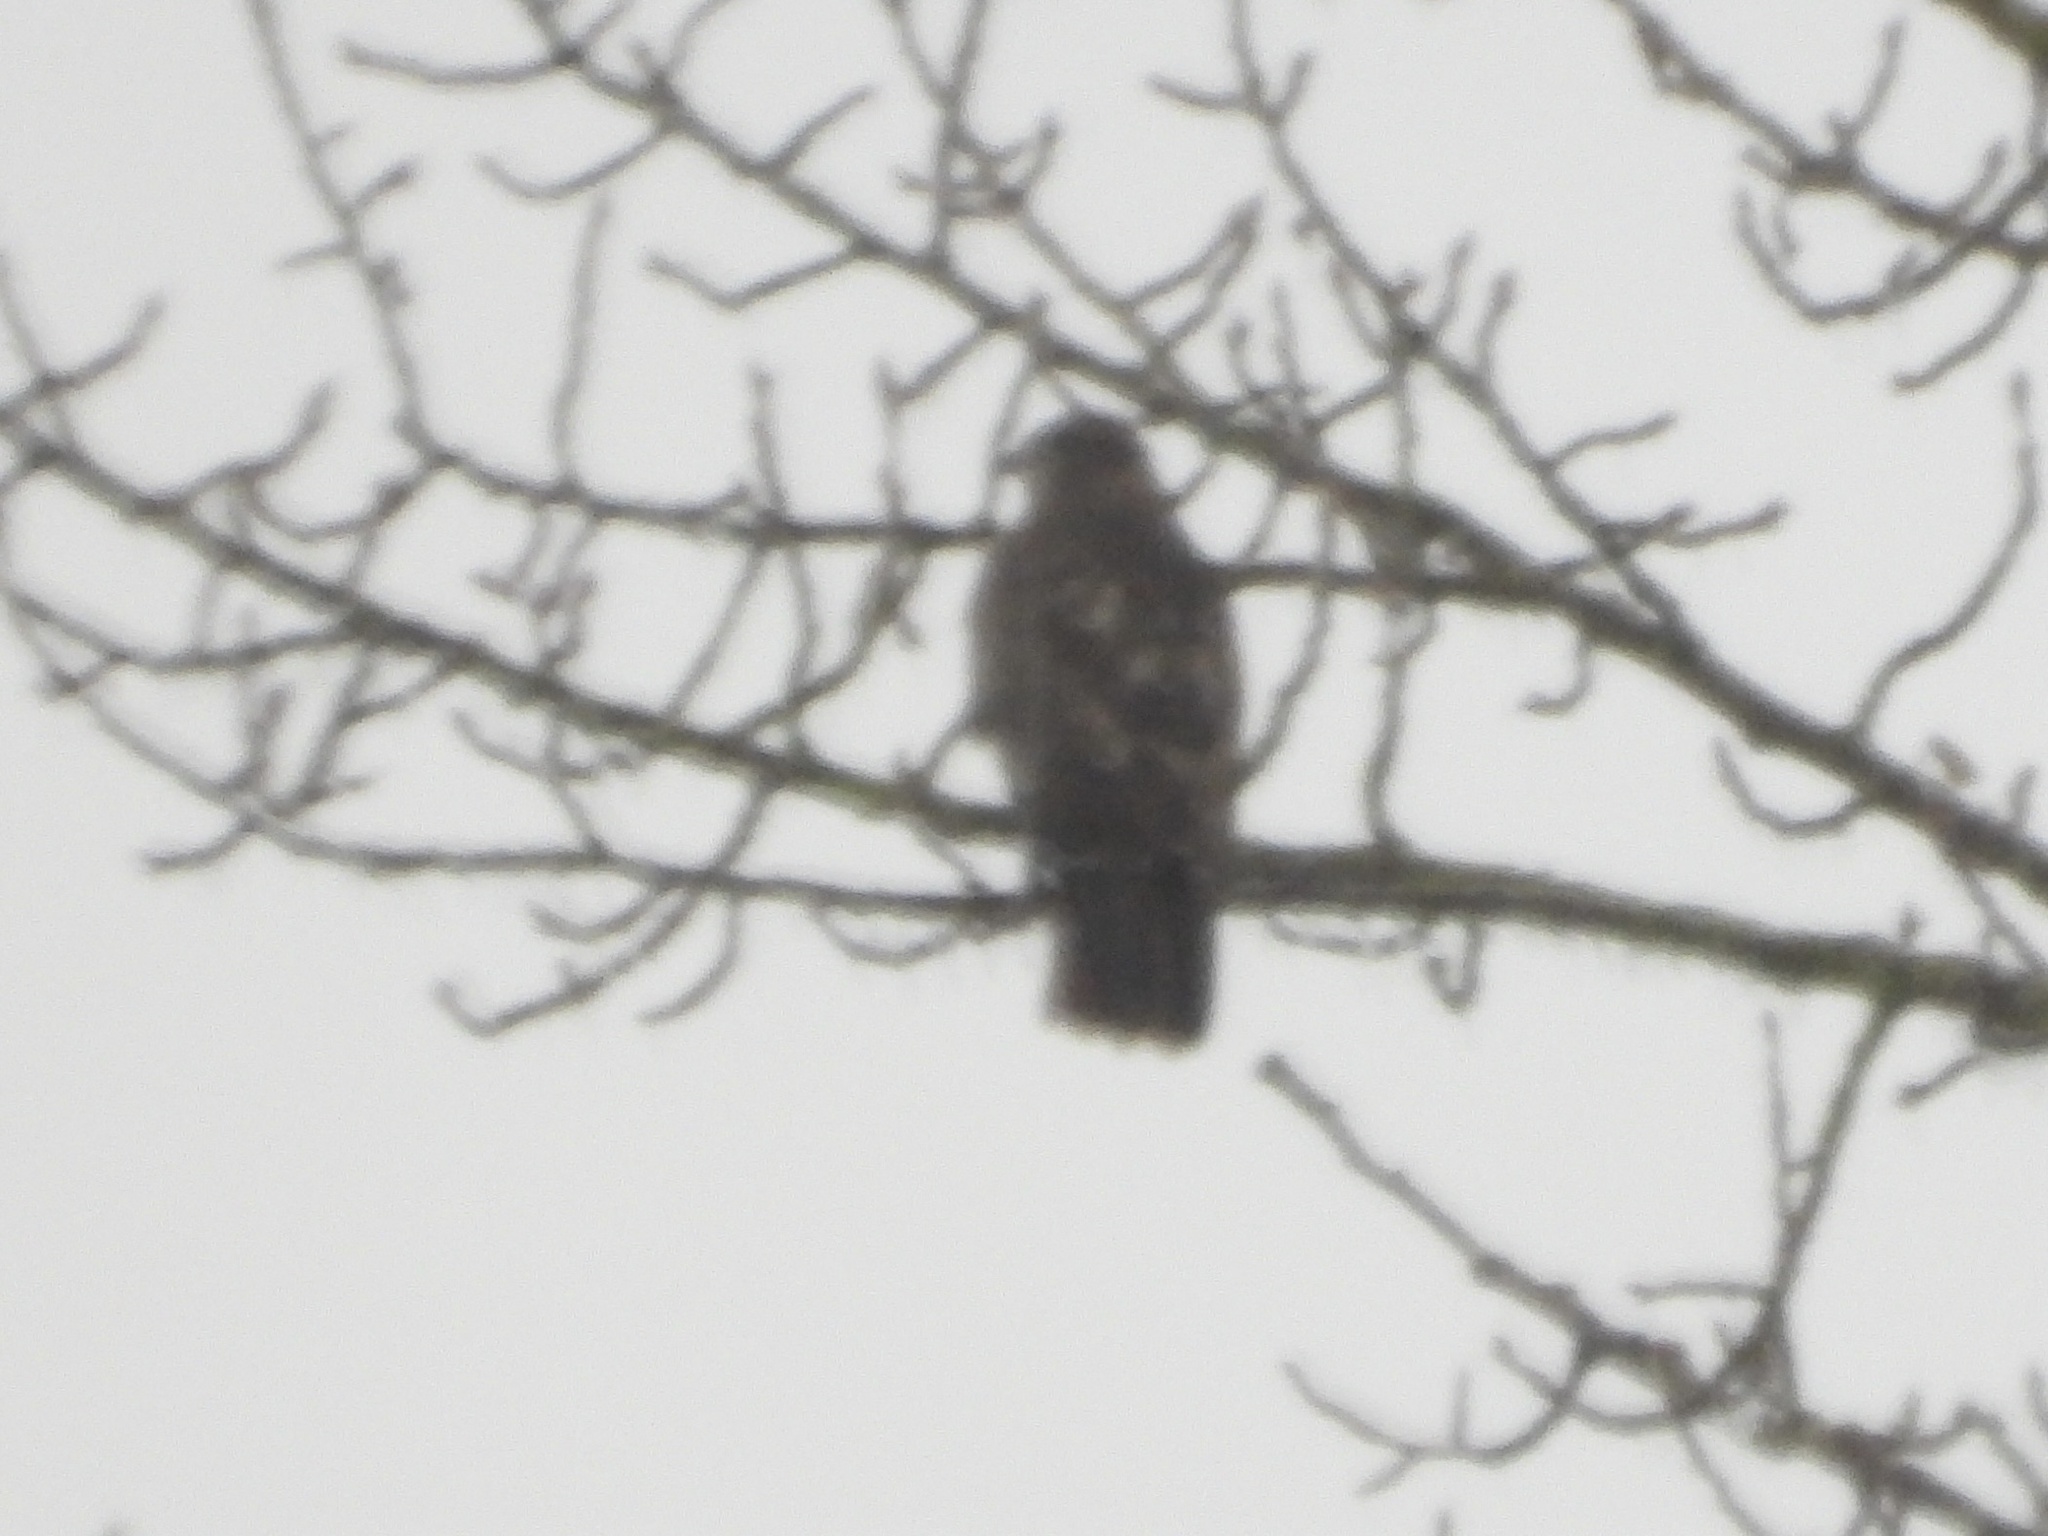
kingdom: Animalia
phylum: Chordata
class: Aves
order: Accipitriformes
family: Accipitridae
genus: Buteo
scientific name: Buteo jamaicensis
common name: Red-tailed hawk
